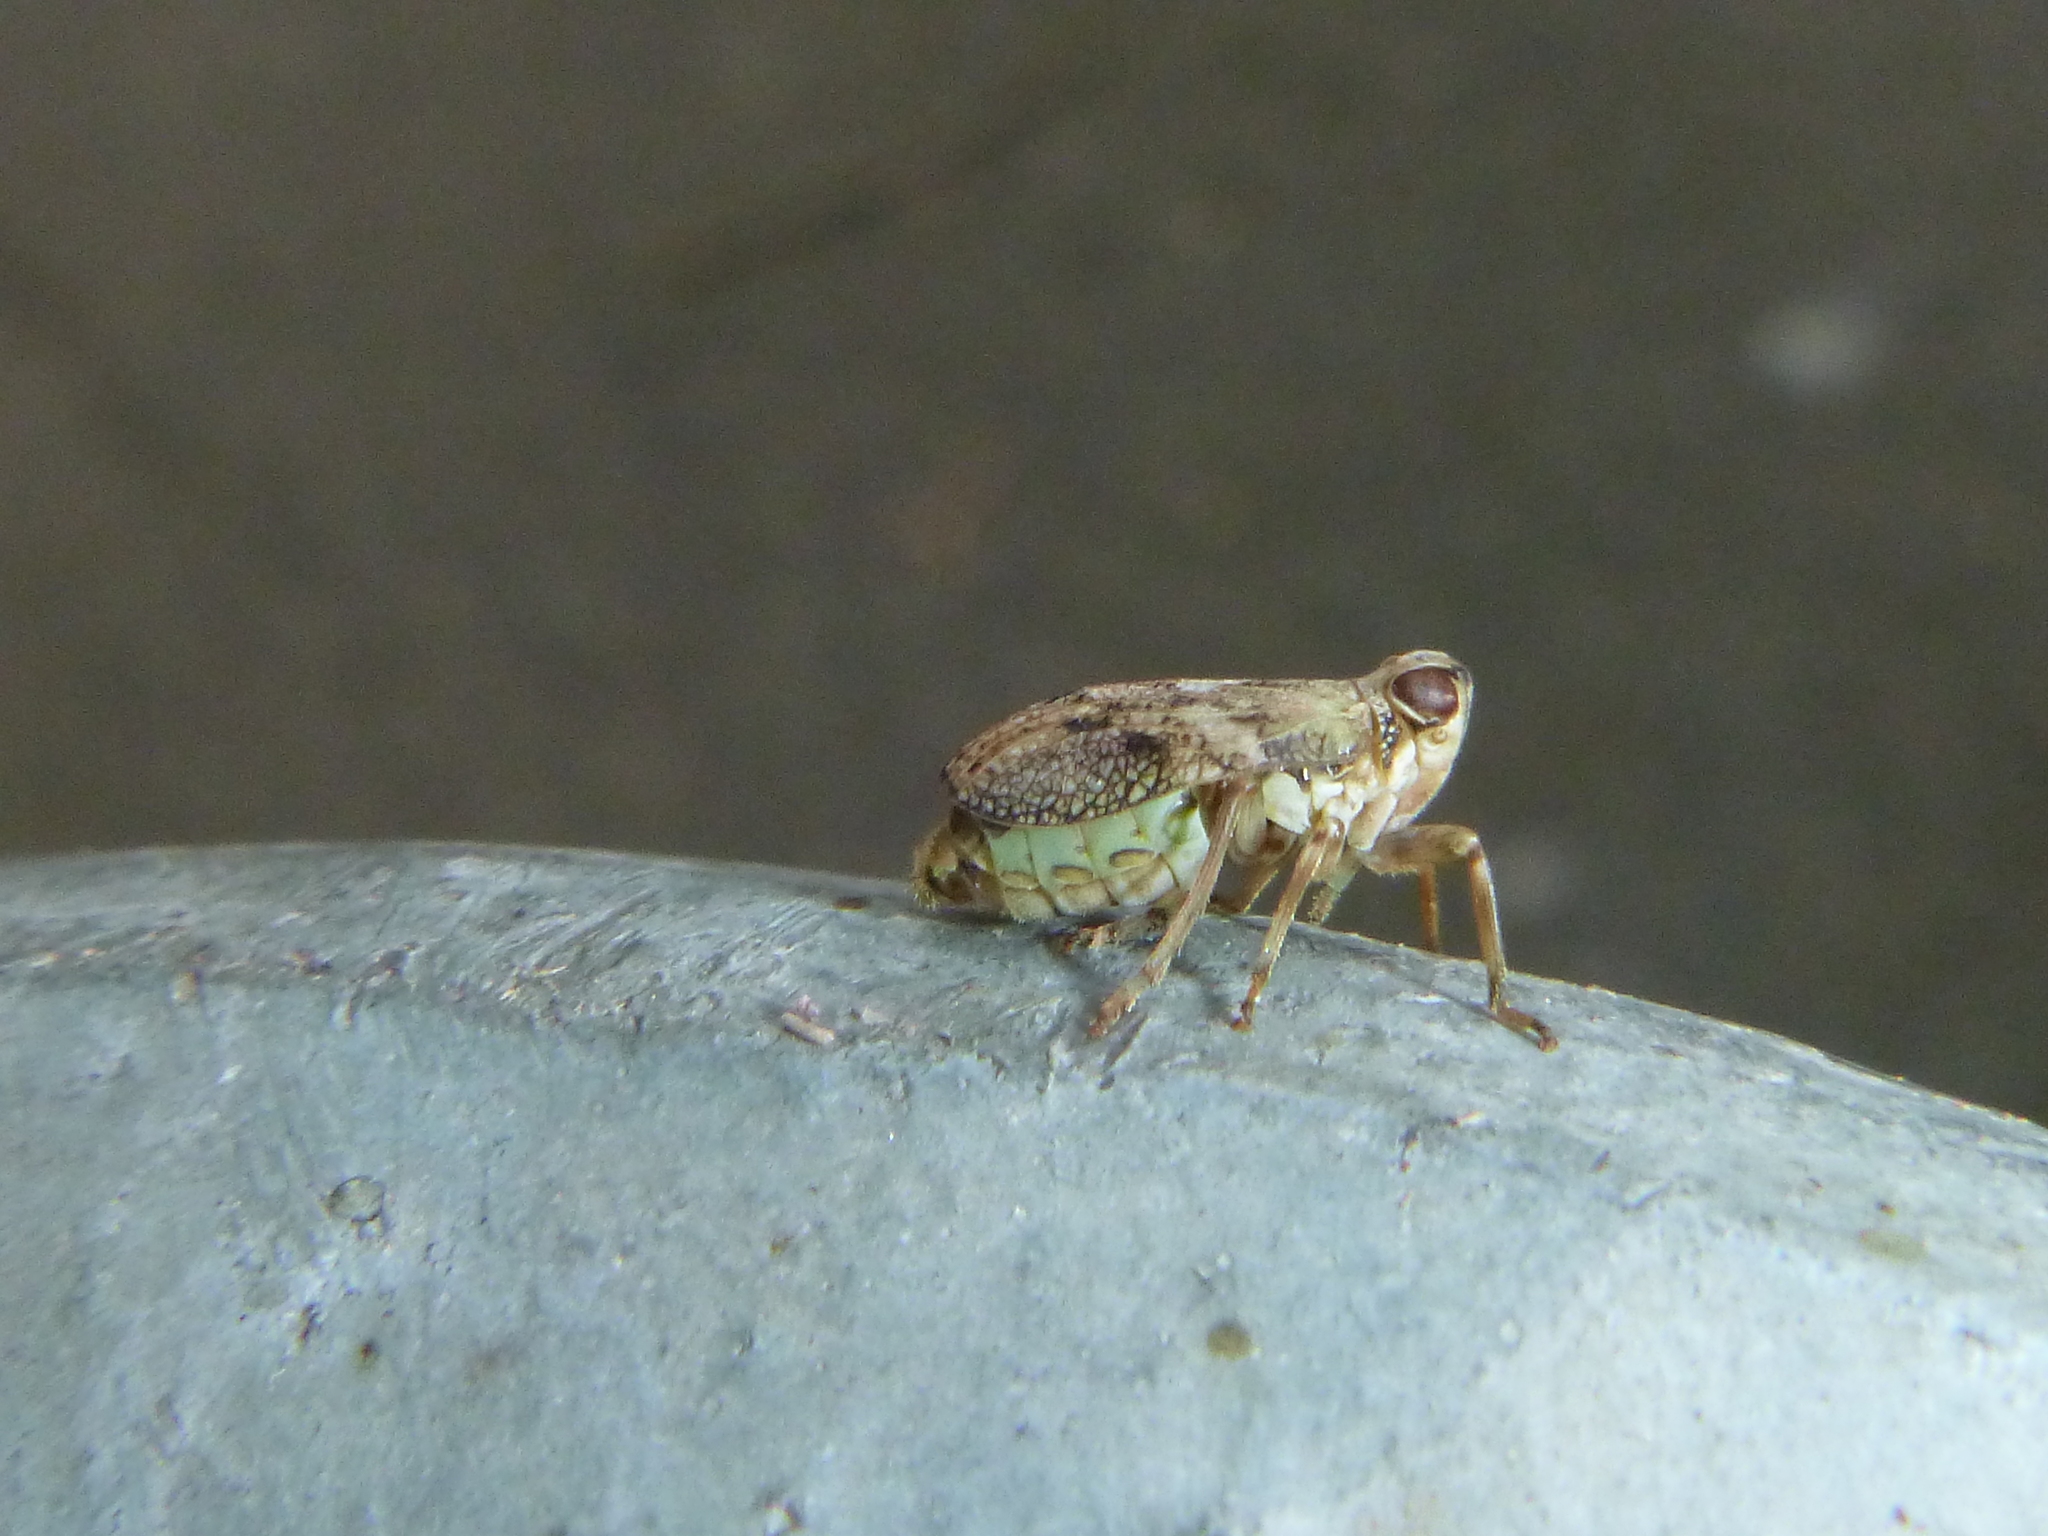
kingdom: Animalia
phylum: Arthropoda
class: Insecta
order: Hemiptera
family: Issidae
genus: Issus
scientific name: Issus coleoptratus
